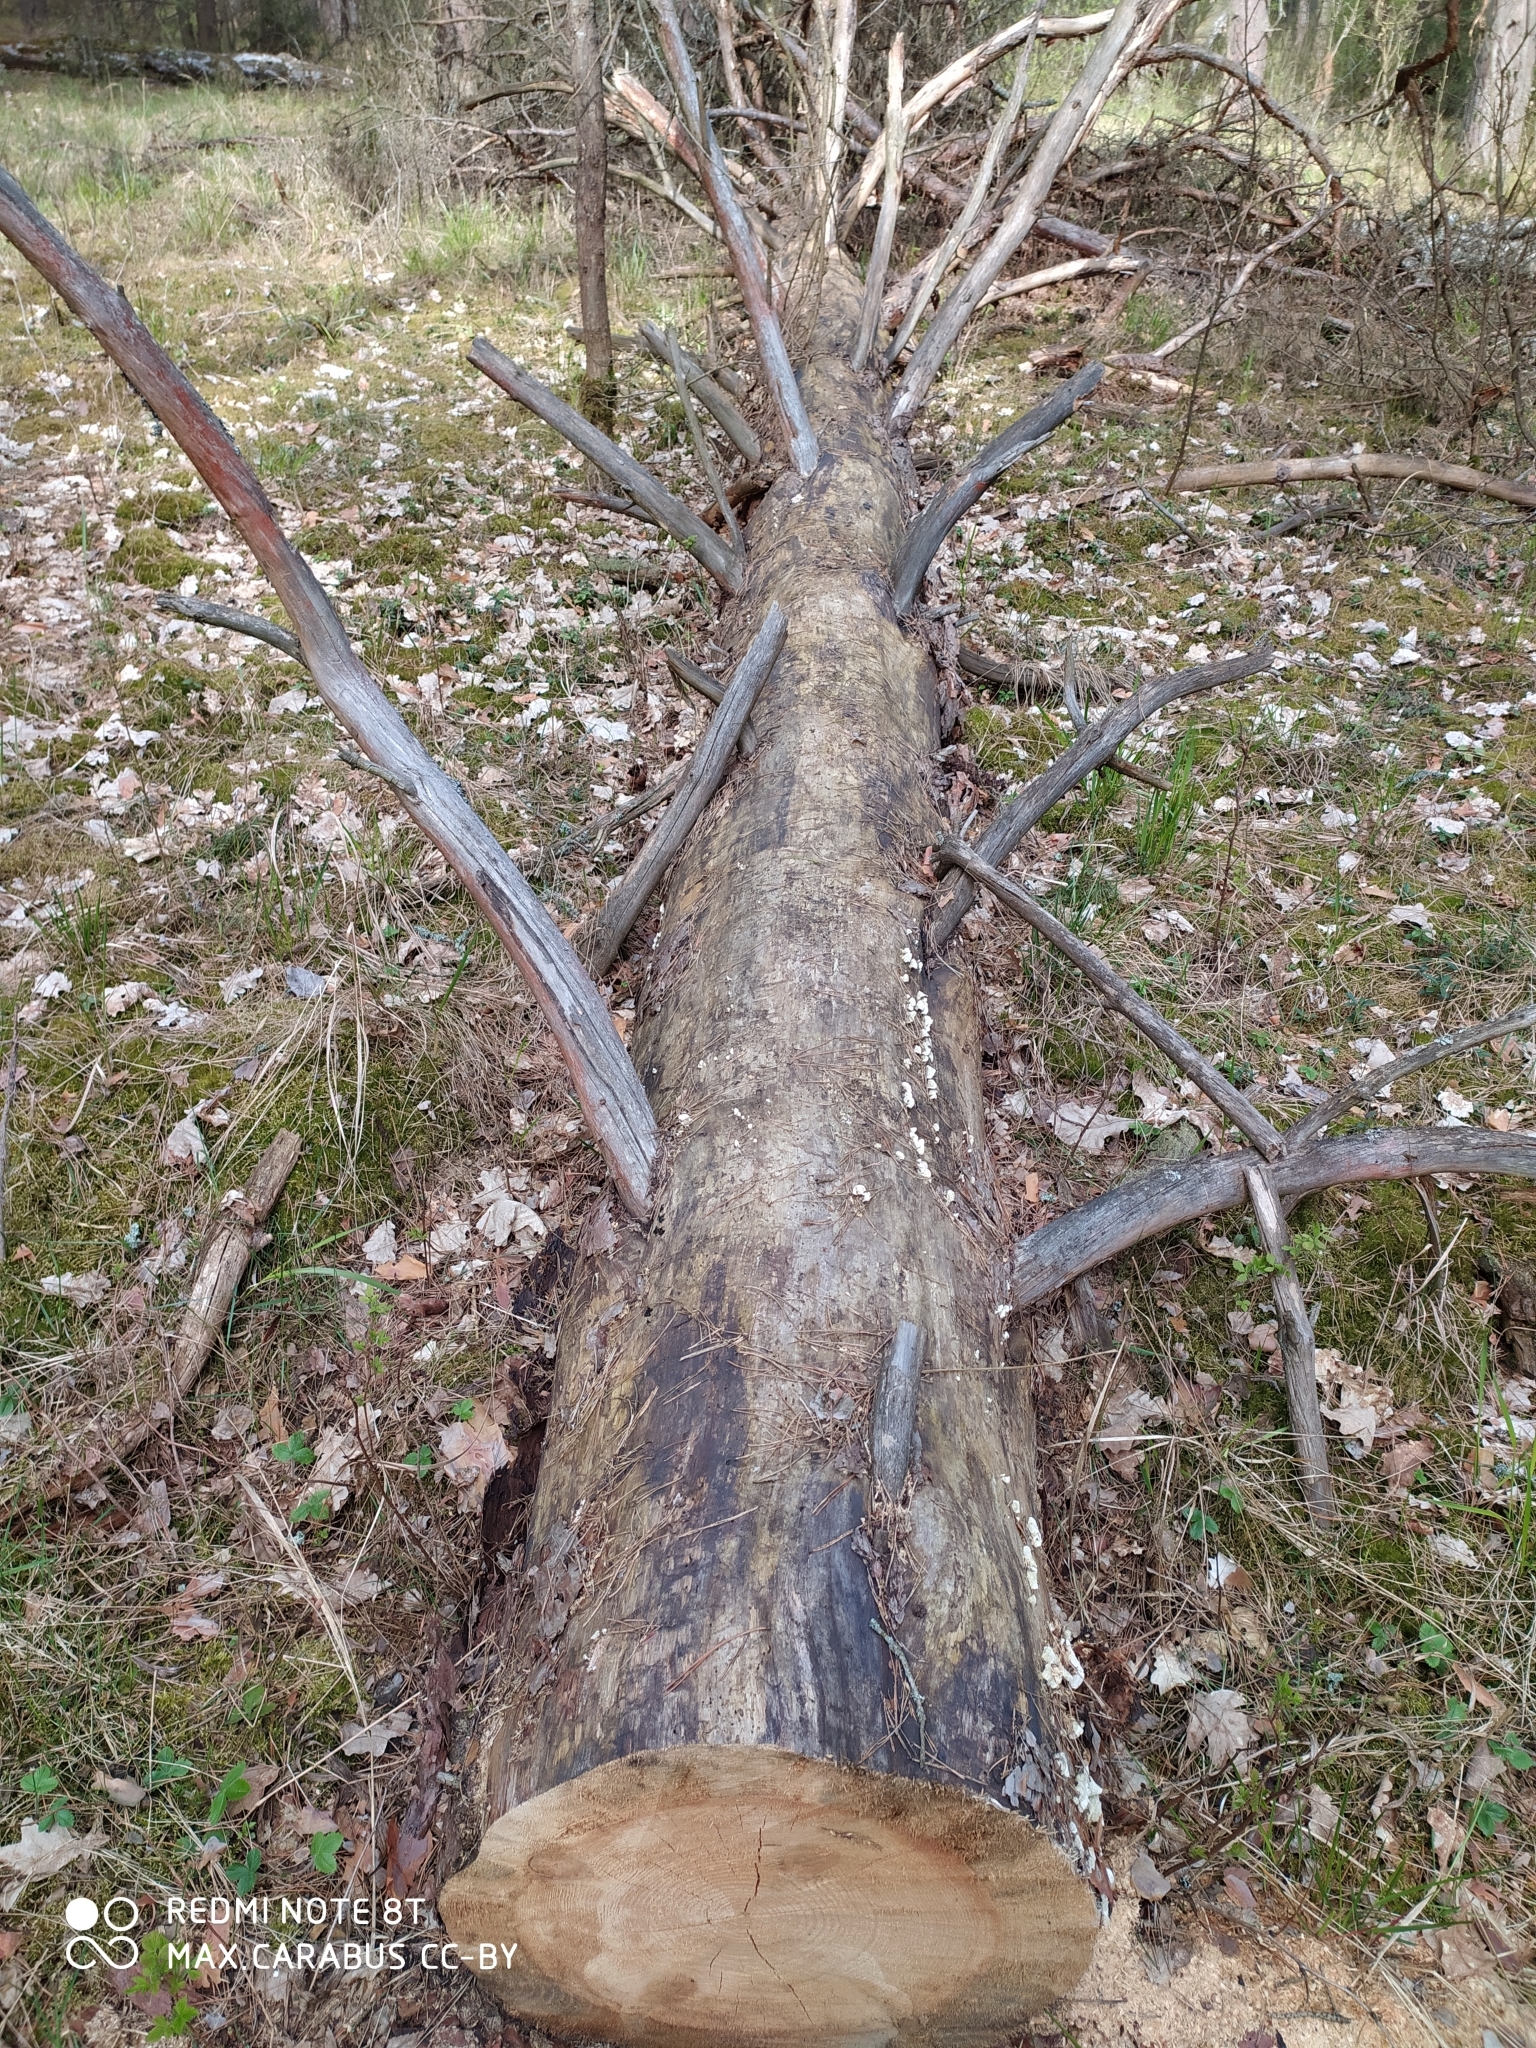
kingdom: Plantae
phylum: Tracheophyta
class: Pinopsida
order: Pinales
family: Pinaceae
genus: Pinus
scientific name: Pinus sylvestris
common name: Scots pine
